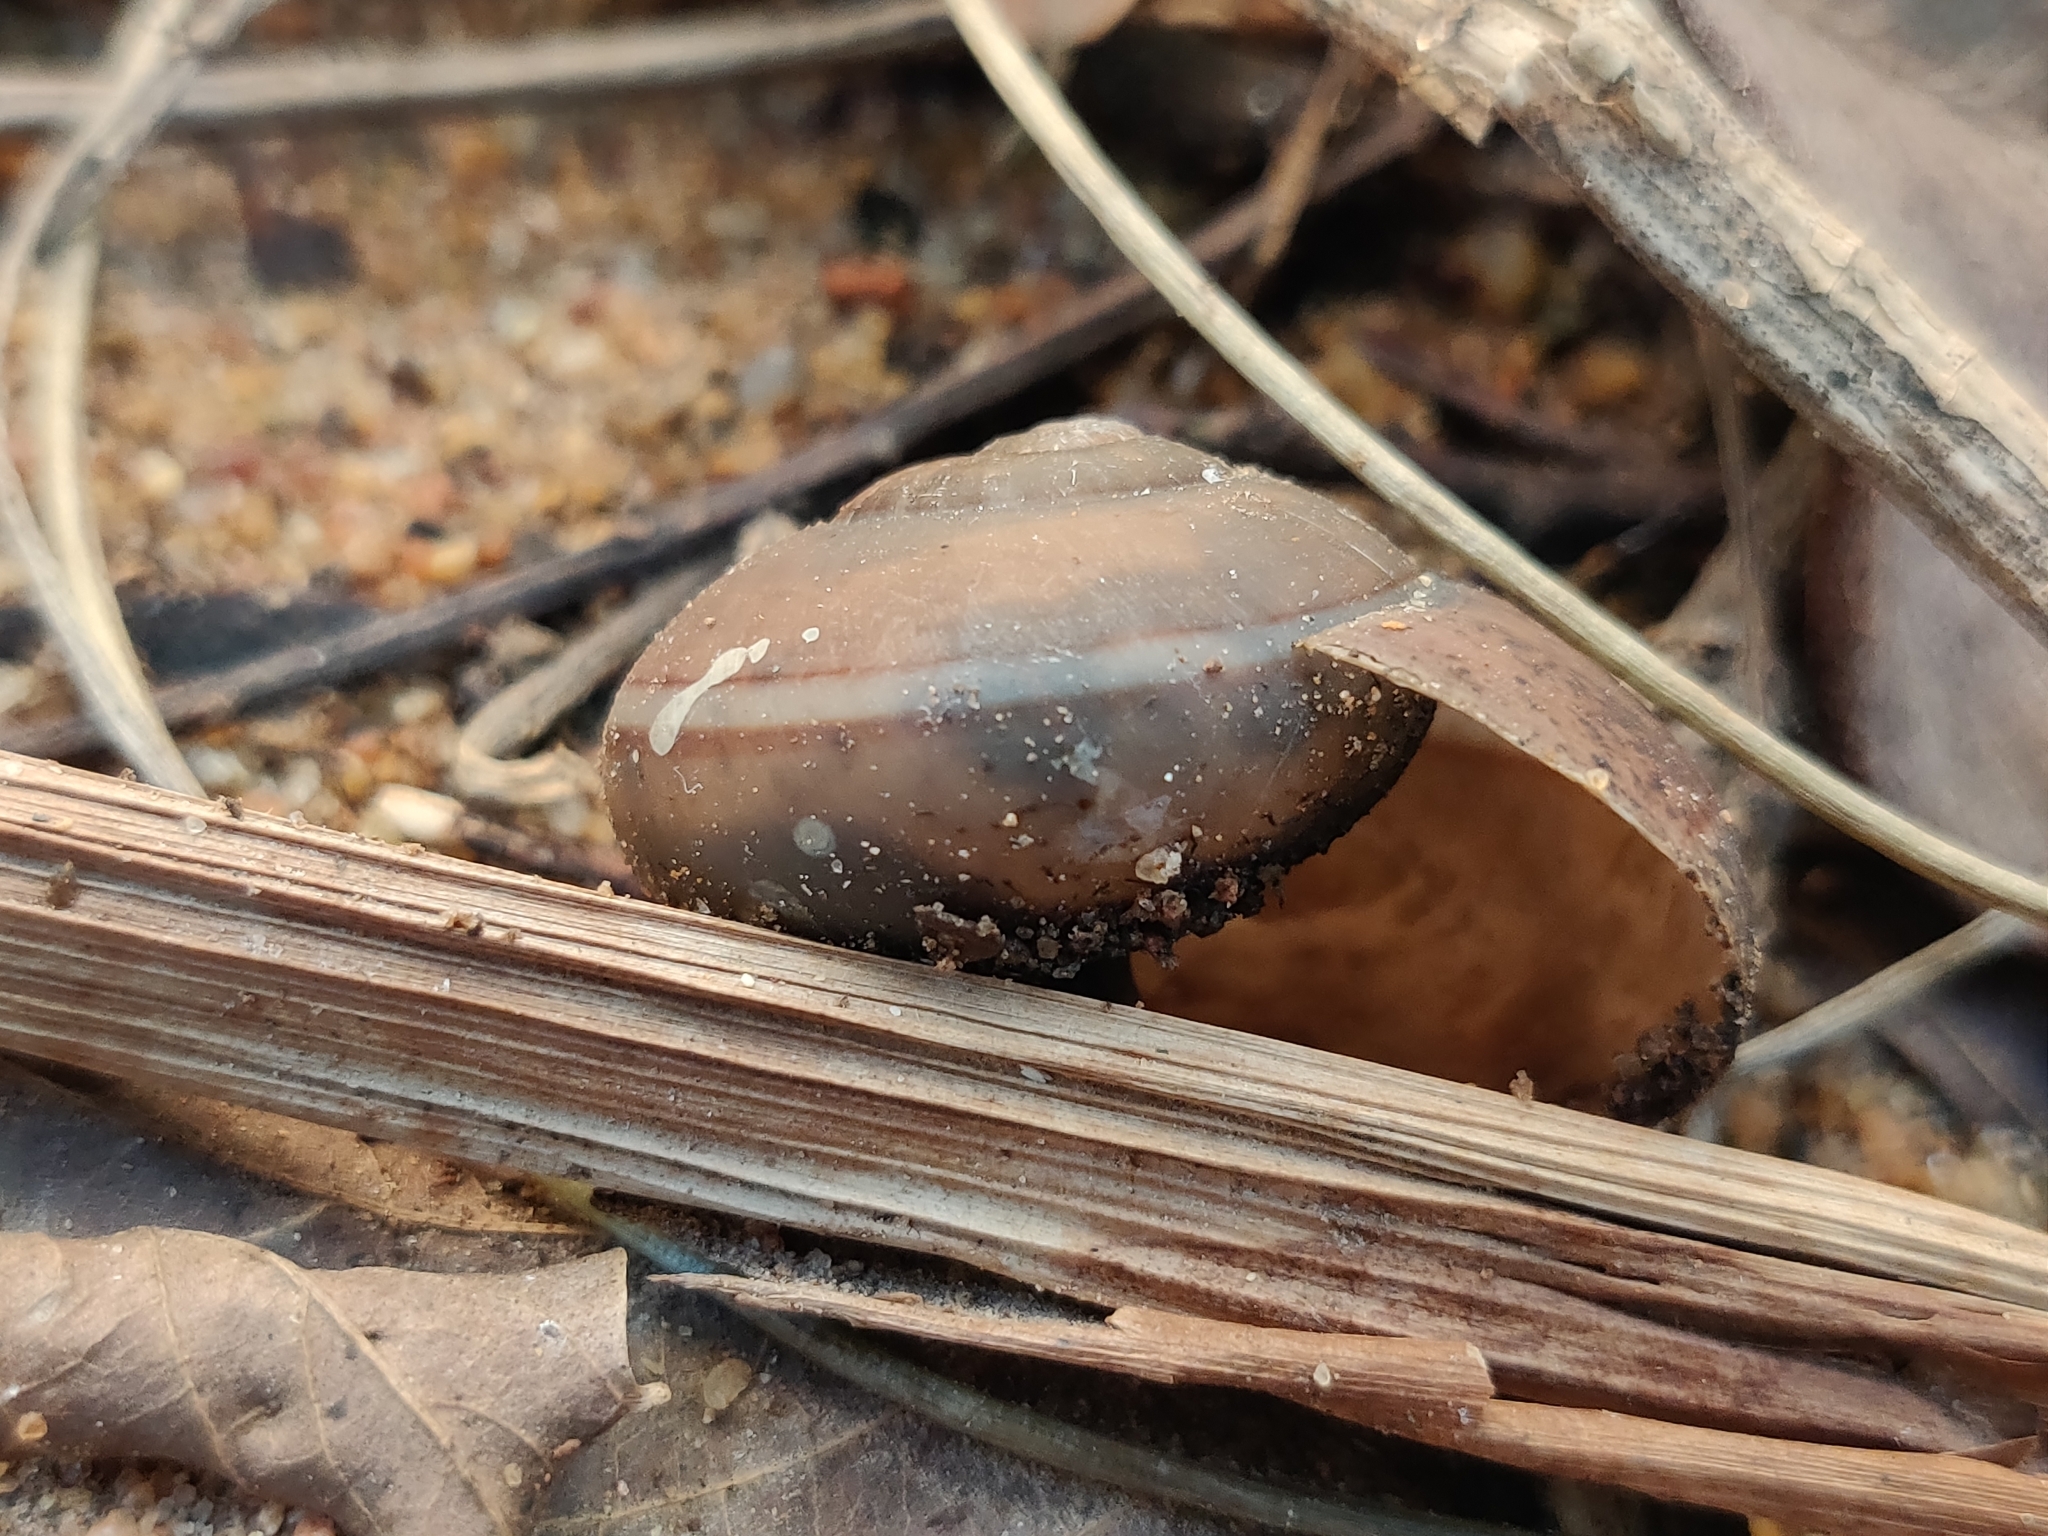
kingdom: Animalia
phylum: Mollusca
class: Gastropoda
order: Stylommatophora
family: Ariophantidae
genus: Ariophanta
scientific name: Ariophanta exilis
